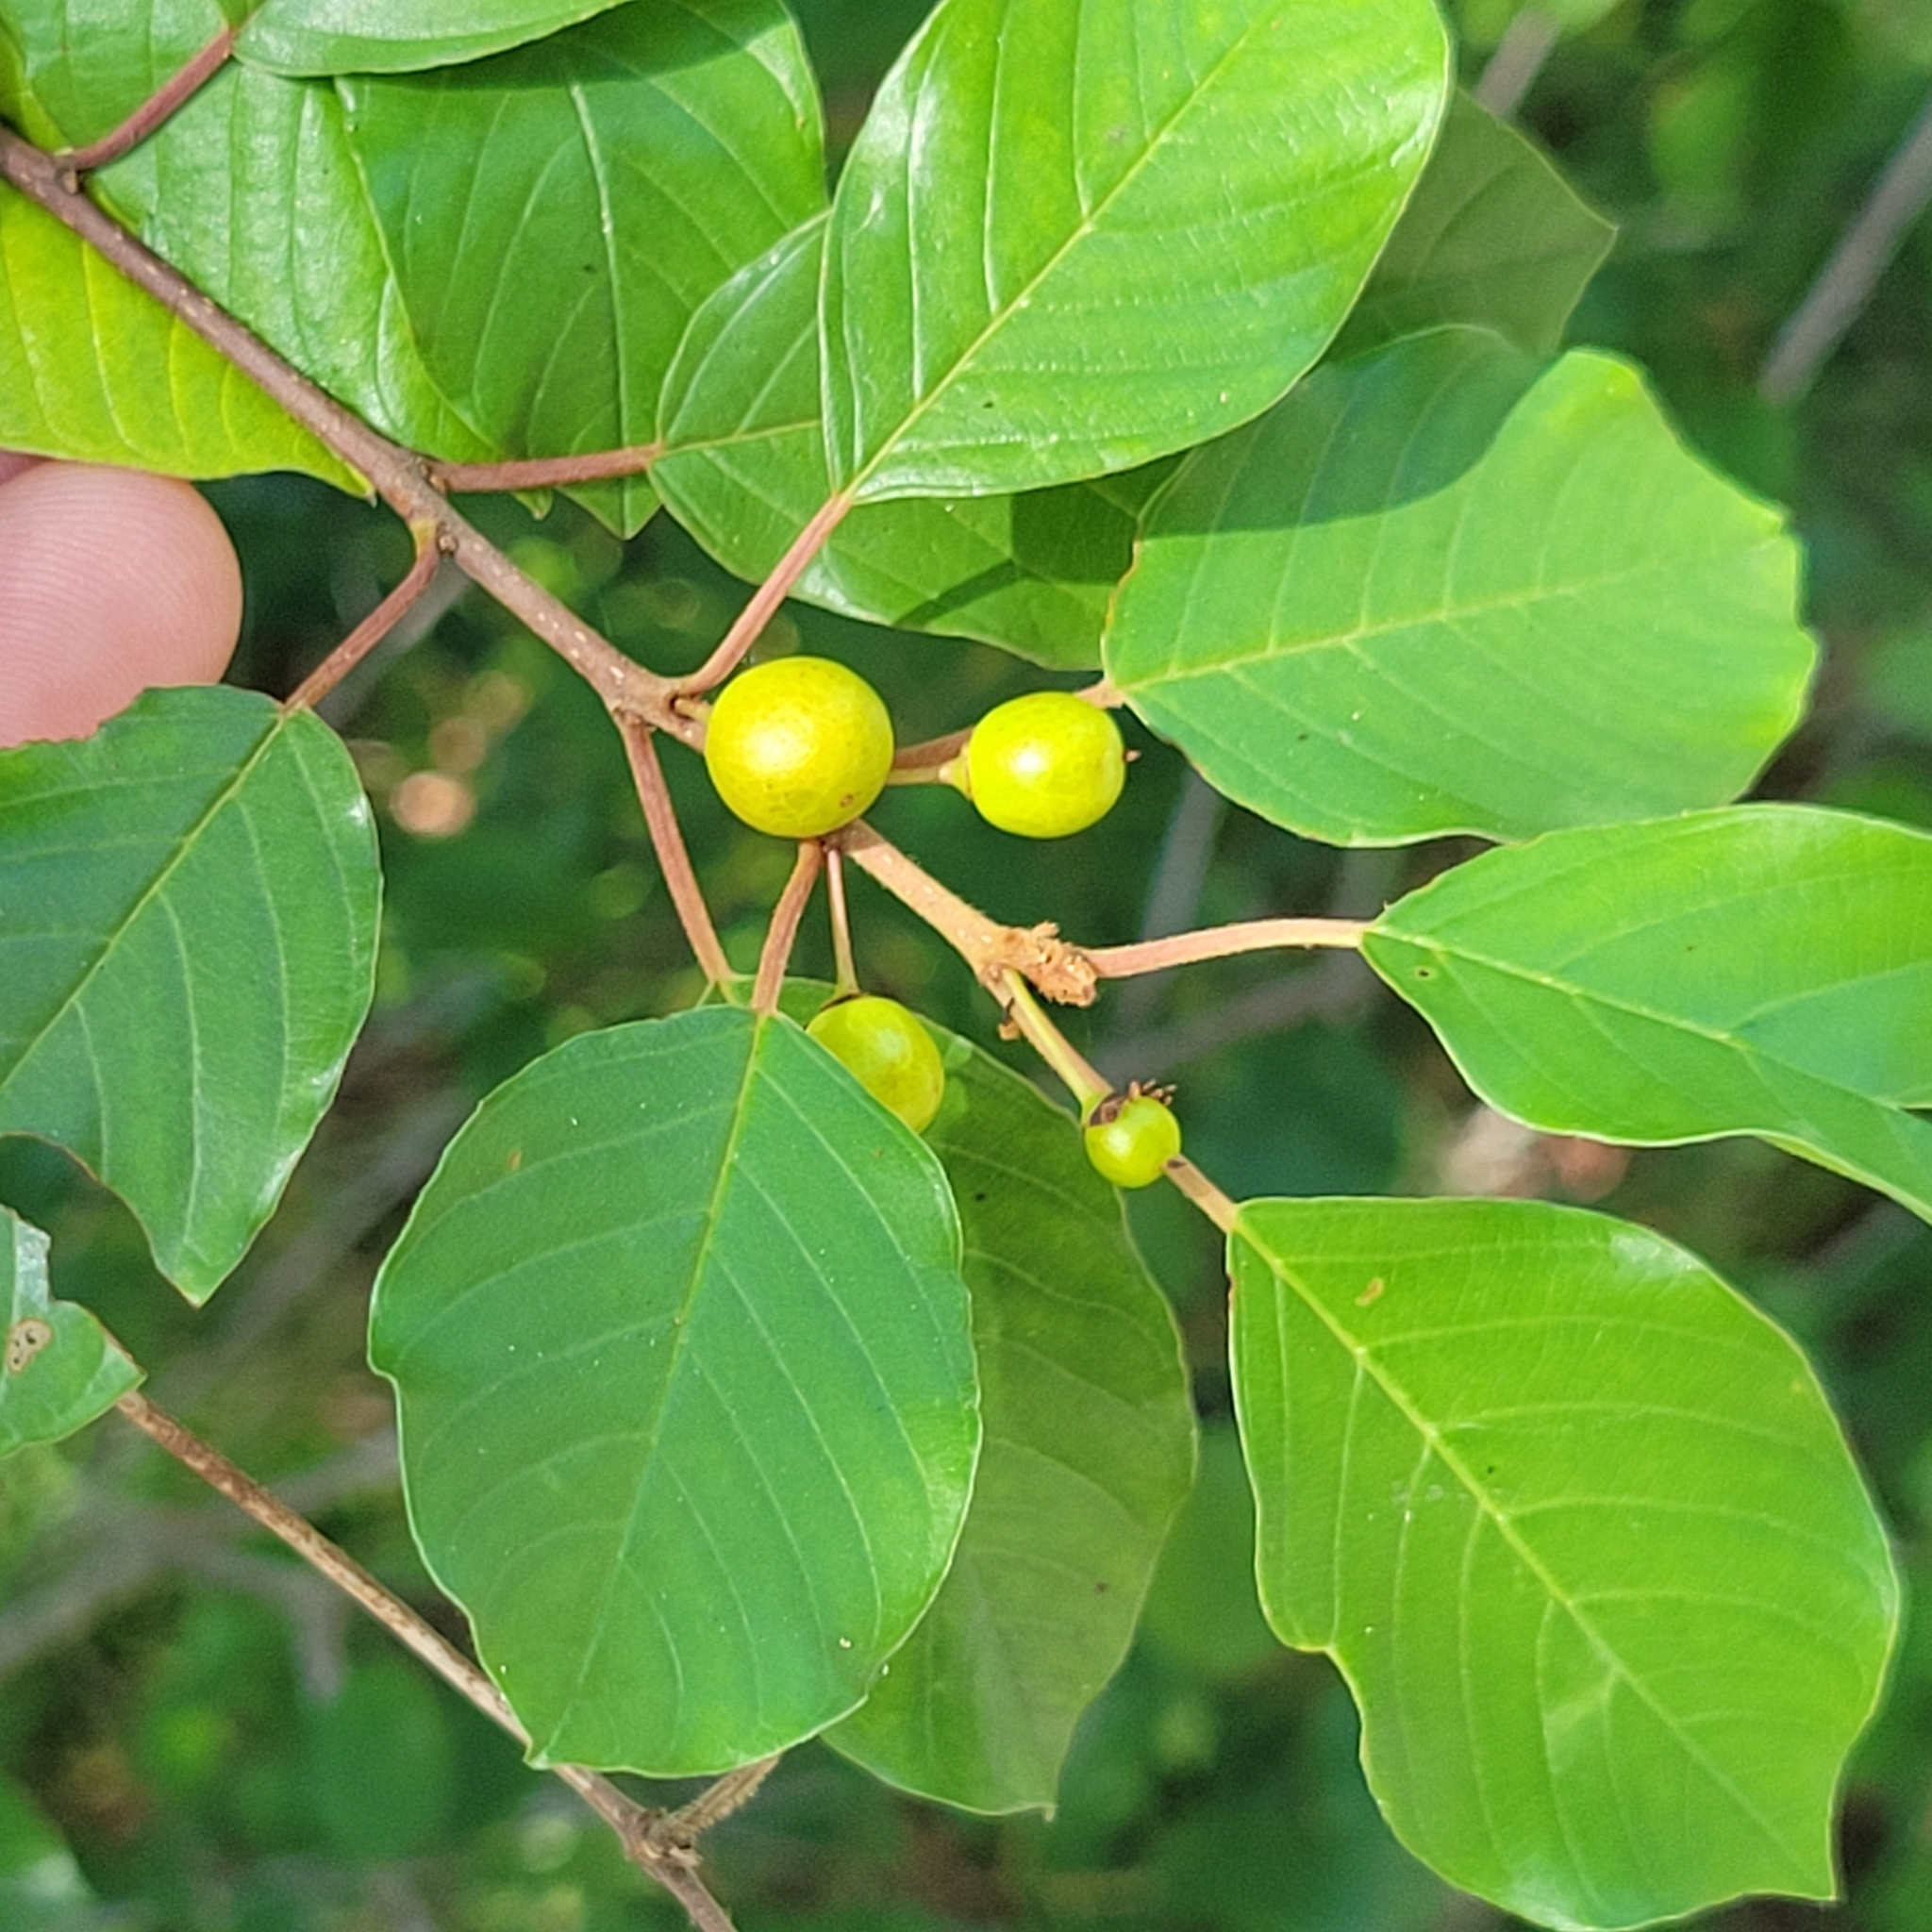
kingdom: Plantae
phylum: Tracheophyta
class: Magnoliopsida
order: Rosales
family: Rhamnaceae
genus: Frangula
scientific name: Frangula alnus
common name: Alder buckthorn
